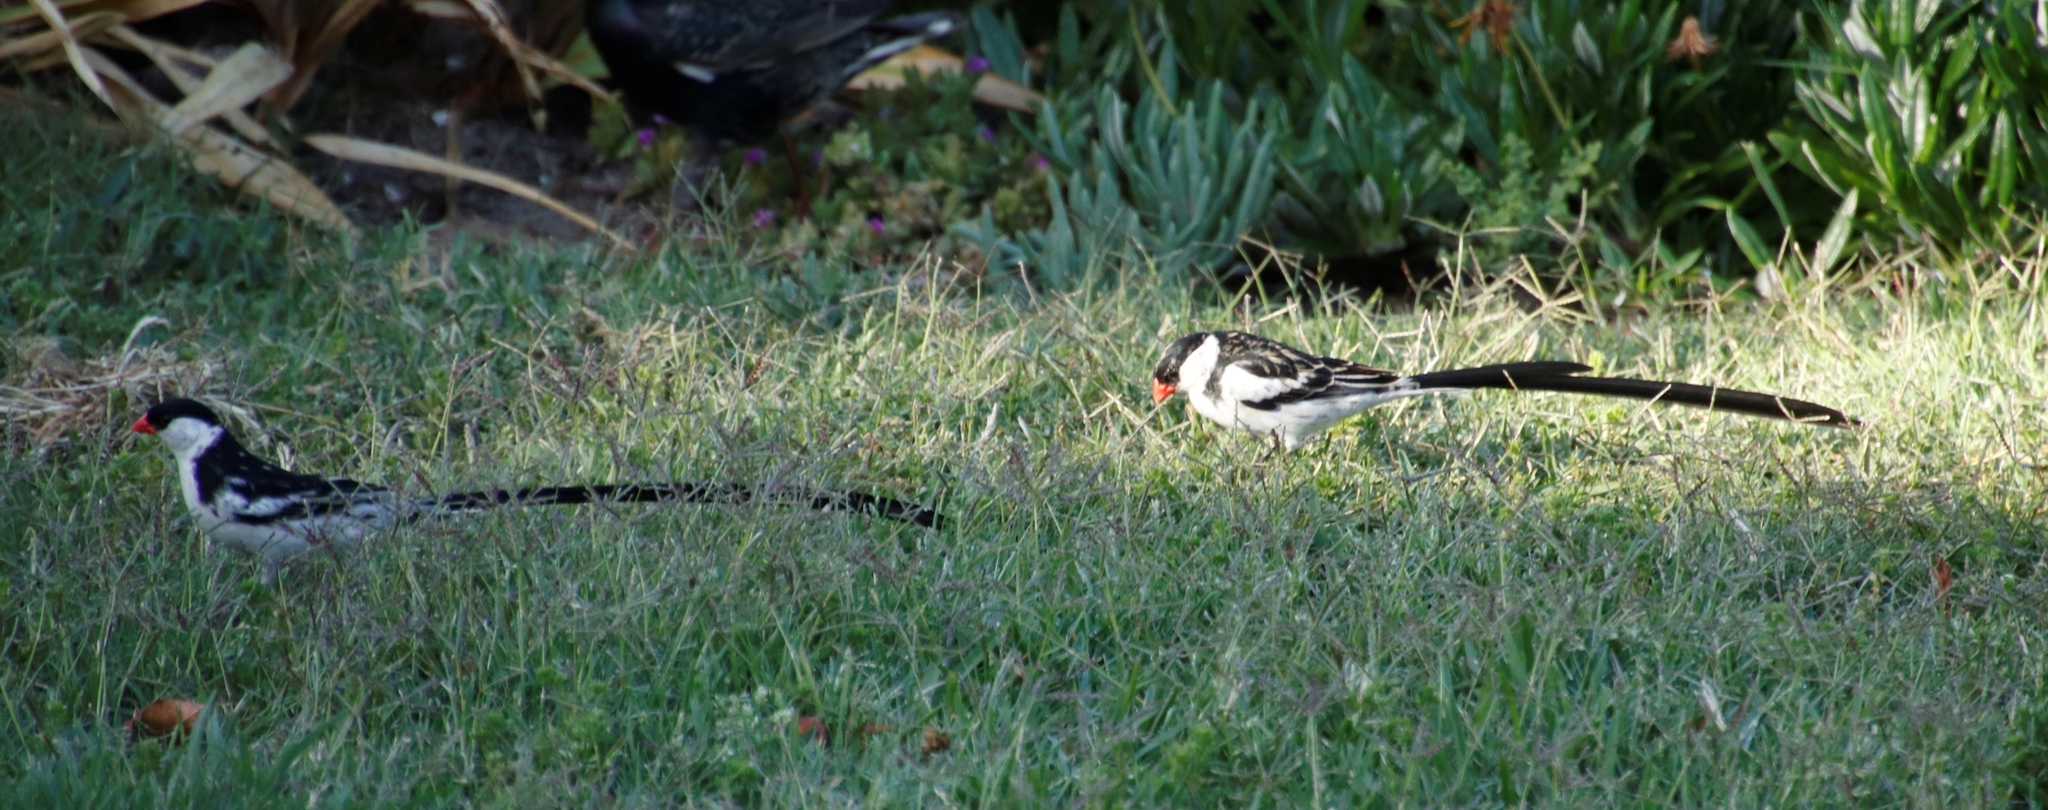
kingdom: Animalia
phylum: Chordata
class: Aves
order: Passeriformes
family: Viduidae
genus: Vidua
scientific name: Vidua macroura
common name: Pin-tailed whydah
